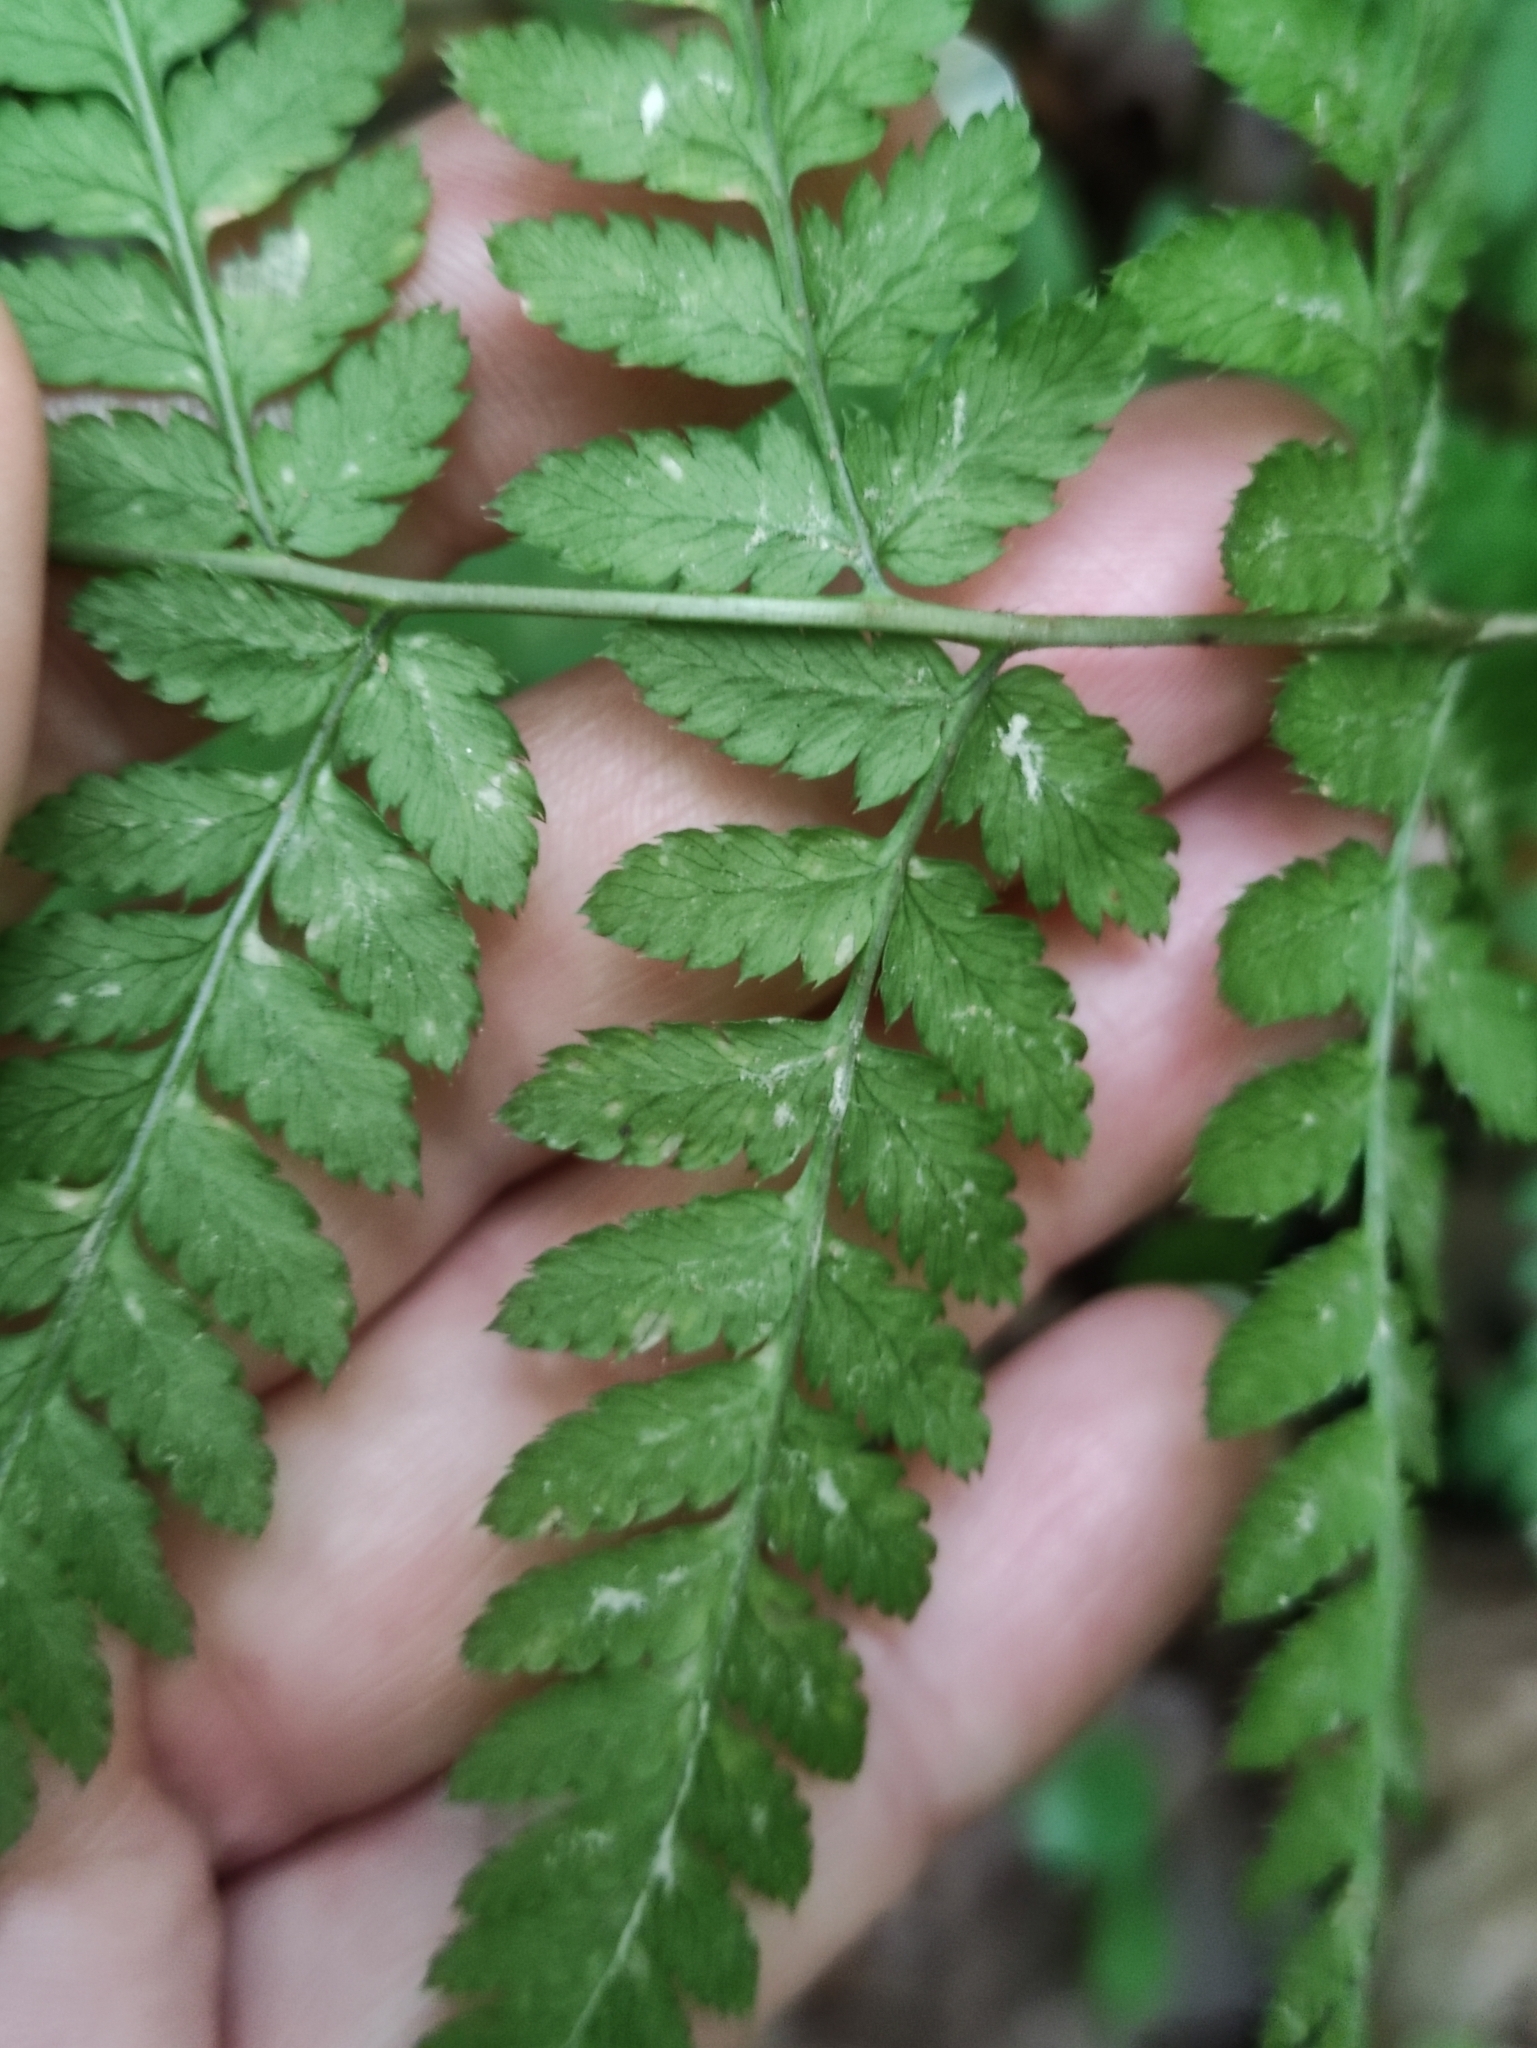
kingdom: Plantae
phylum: Tracheophyta
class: Polypodiopsida
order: Polypodiales
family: Dryopteridaceae
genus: Dryopteris
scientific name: Dryopteris carthusiana
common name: Narrow buckler-fern
